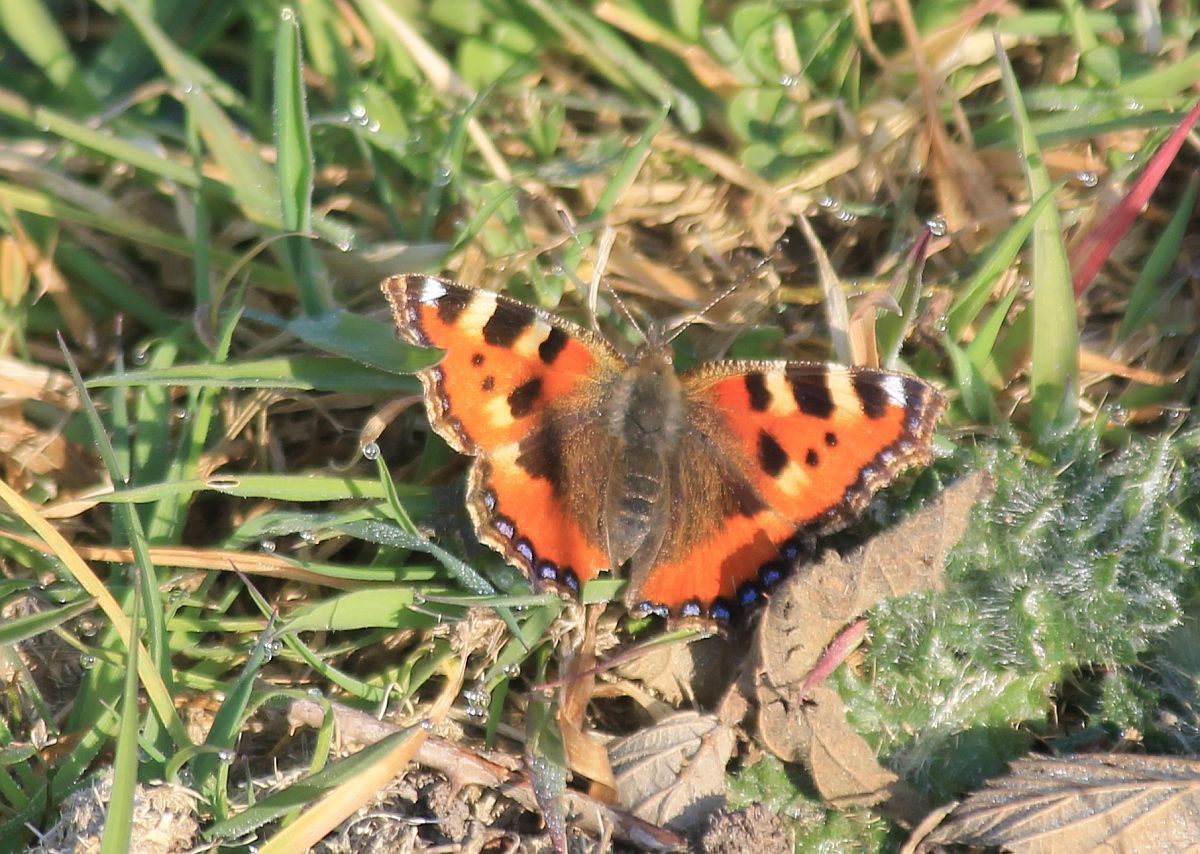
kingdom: Animalia
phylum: Arthropoda
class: Insecta
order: Lepidoptera
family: Nymphalidae
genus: Aglais
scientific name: Aglais urticae
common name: Small tortoiseshell
